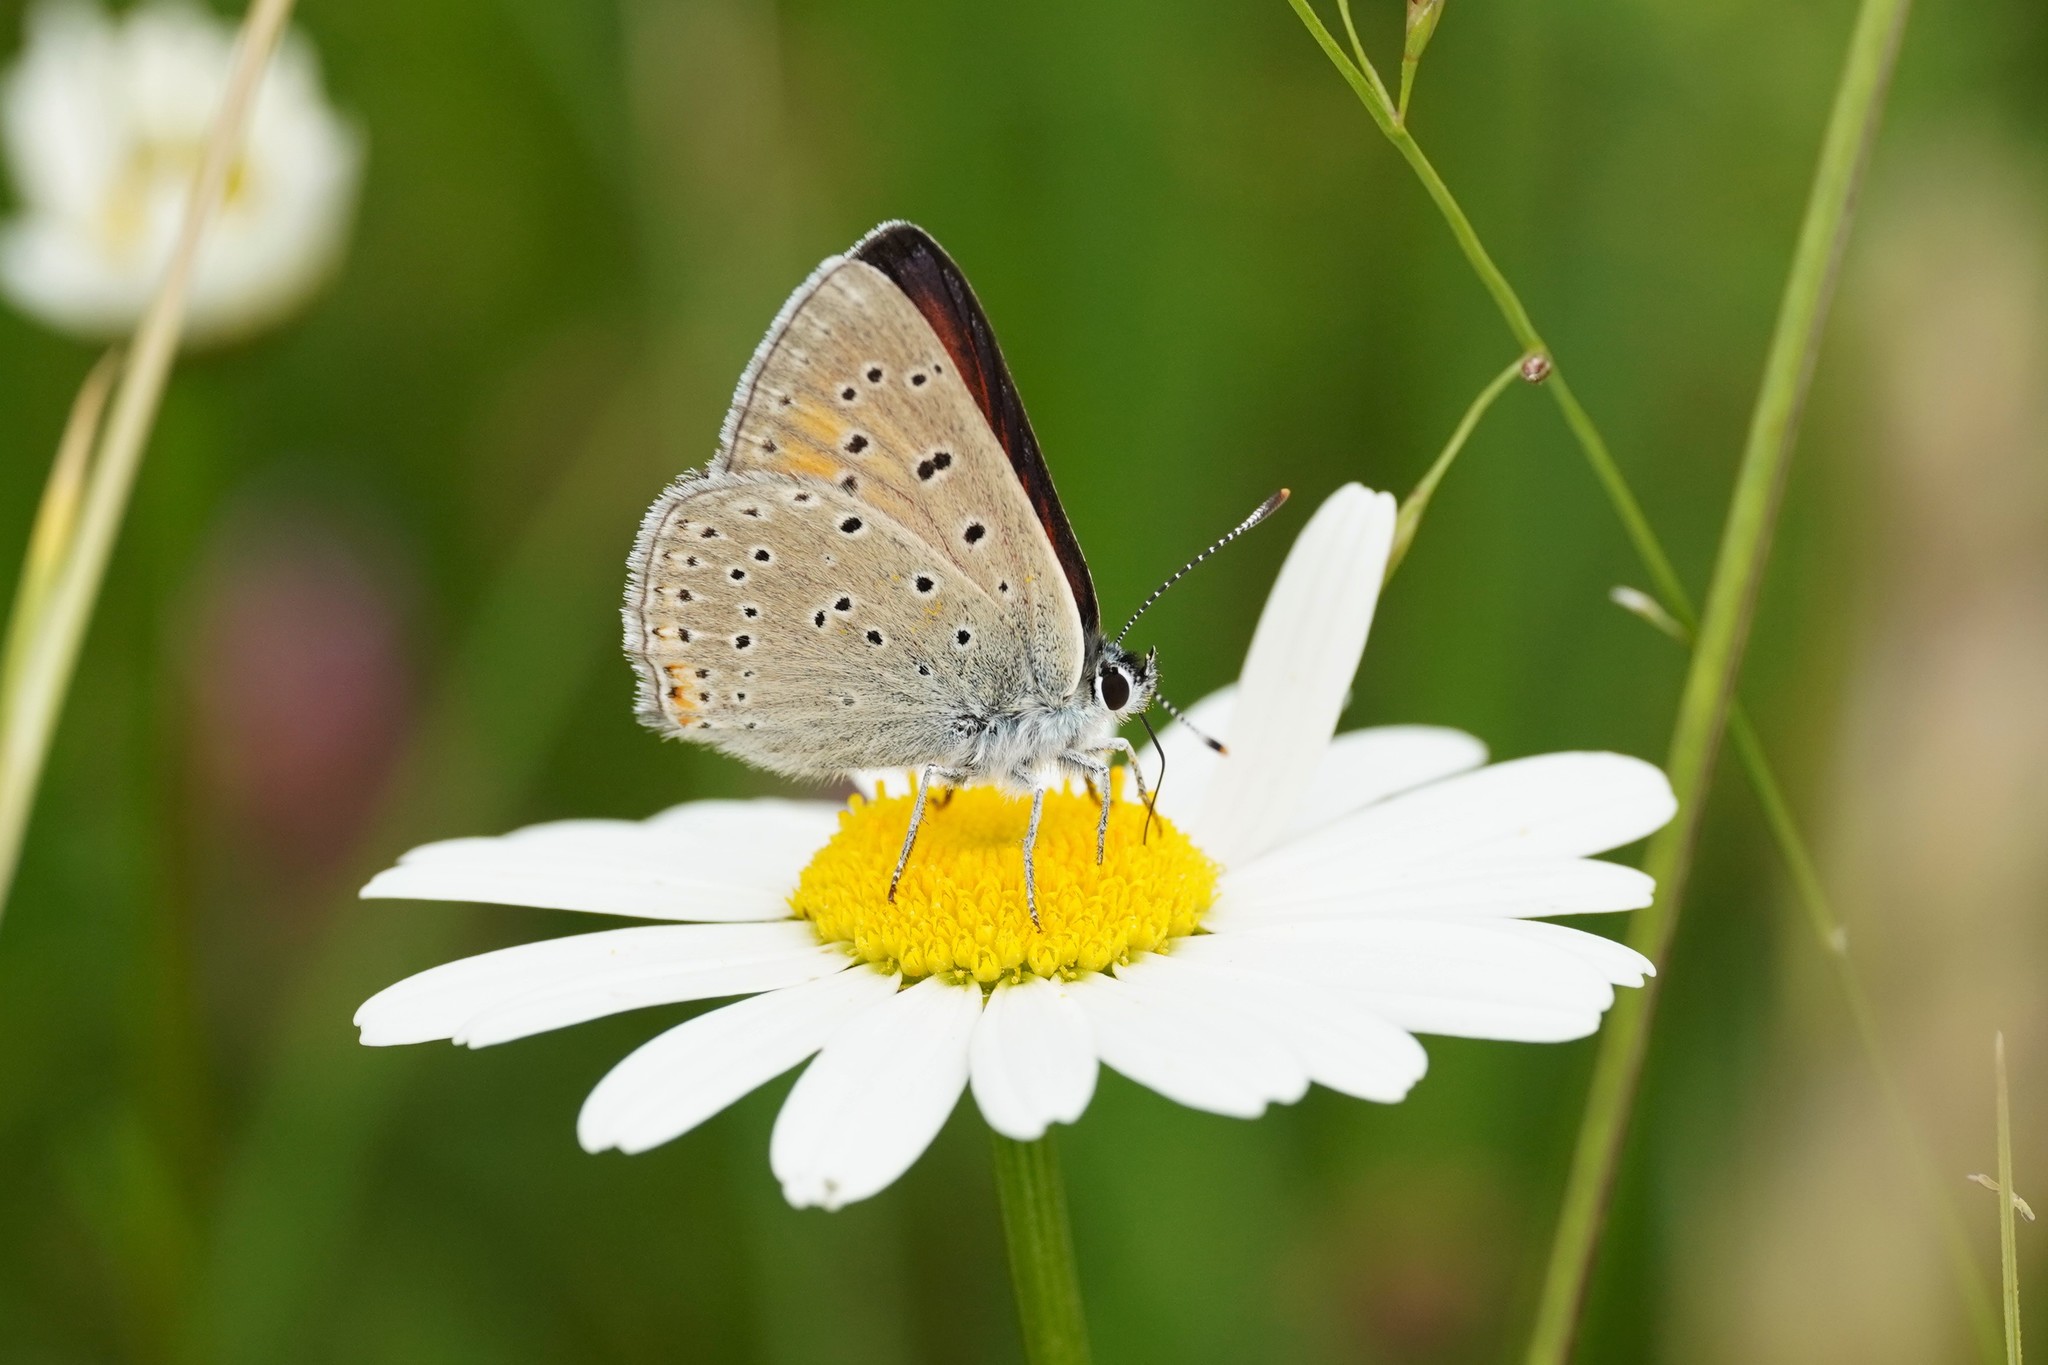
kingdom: Animalia
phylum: Arthropoda
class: Insecta
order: Lepidoptera
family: Lycaenidae
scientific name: Lycaenidae
